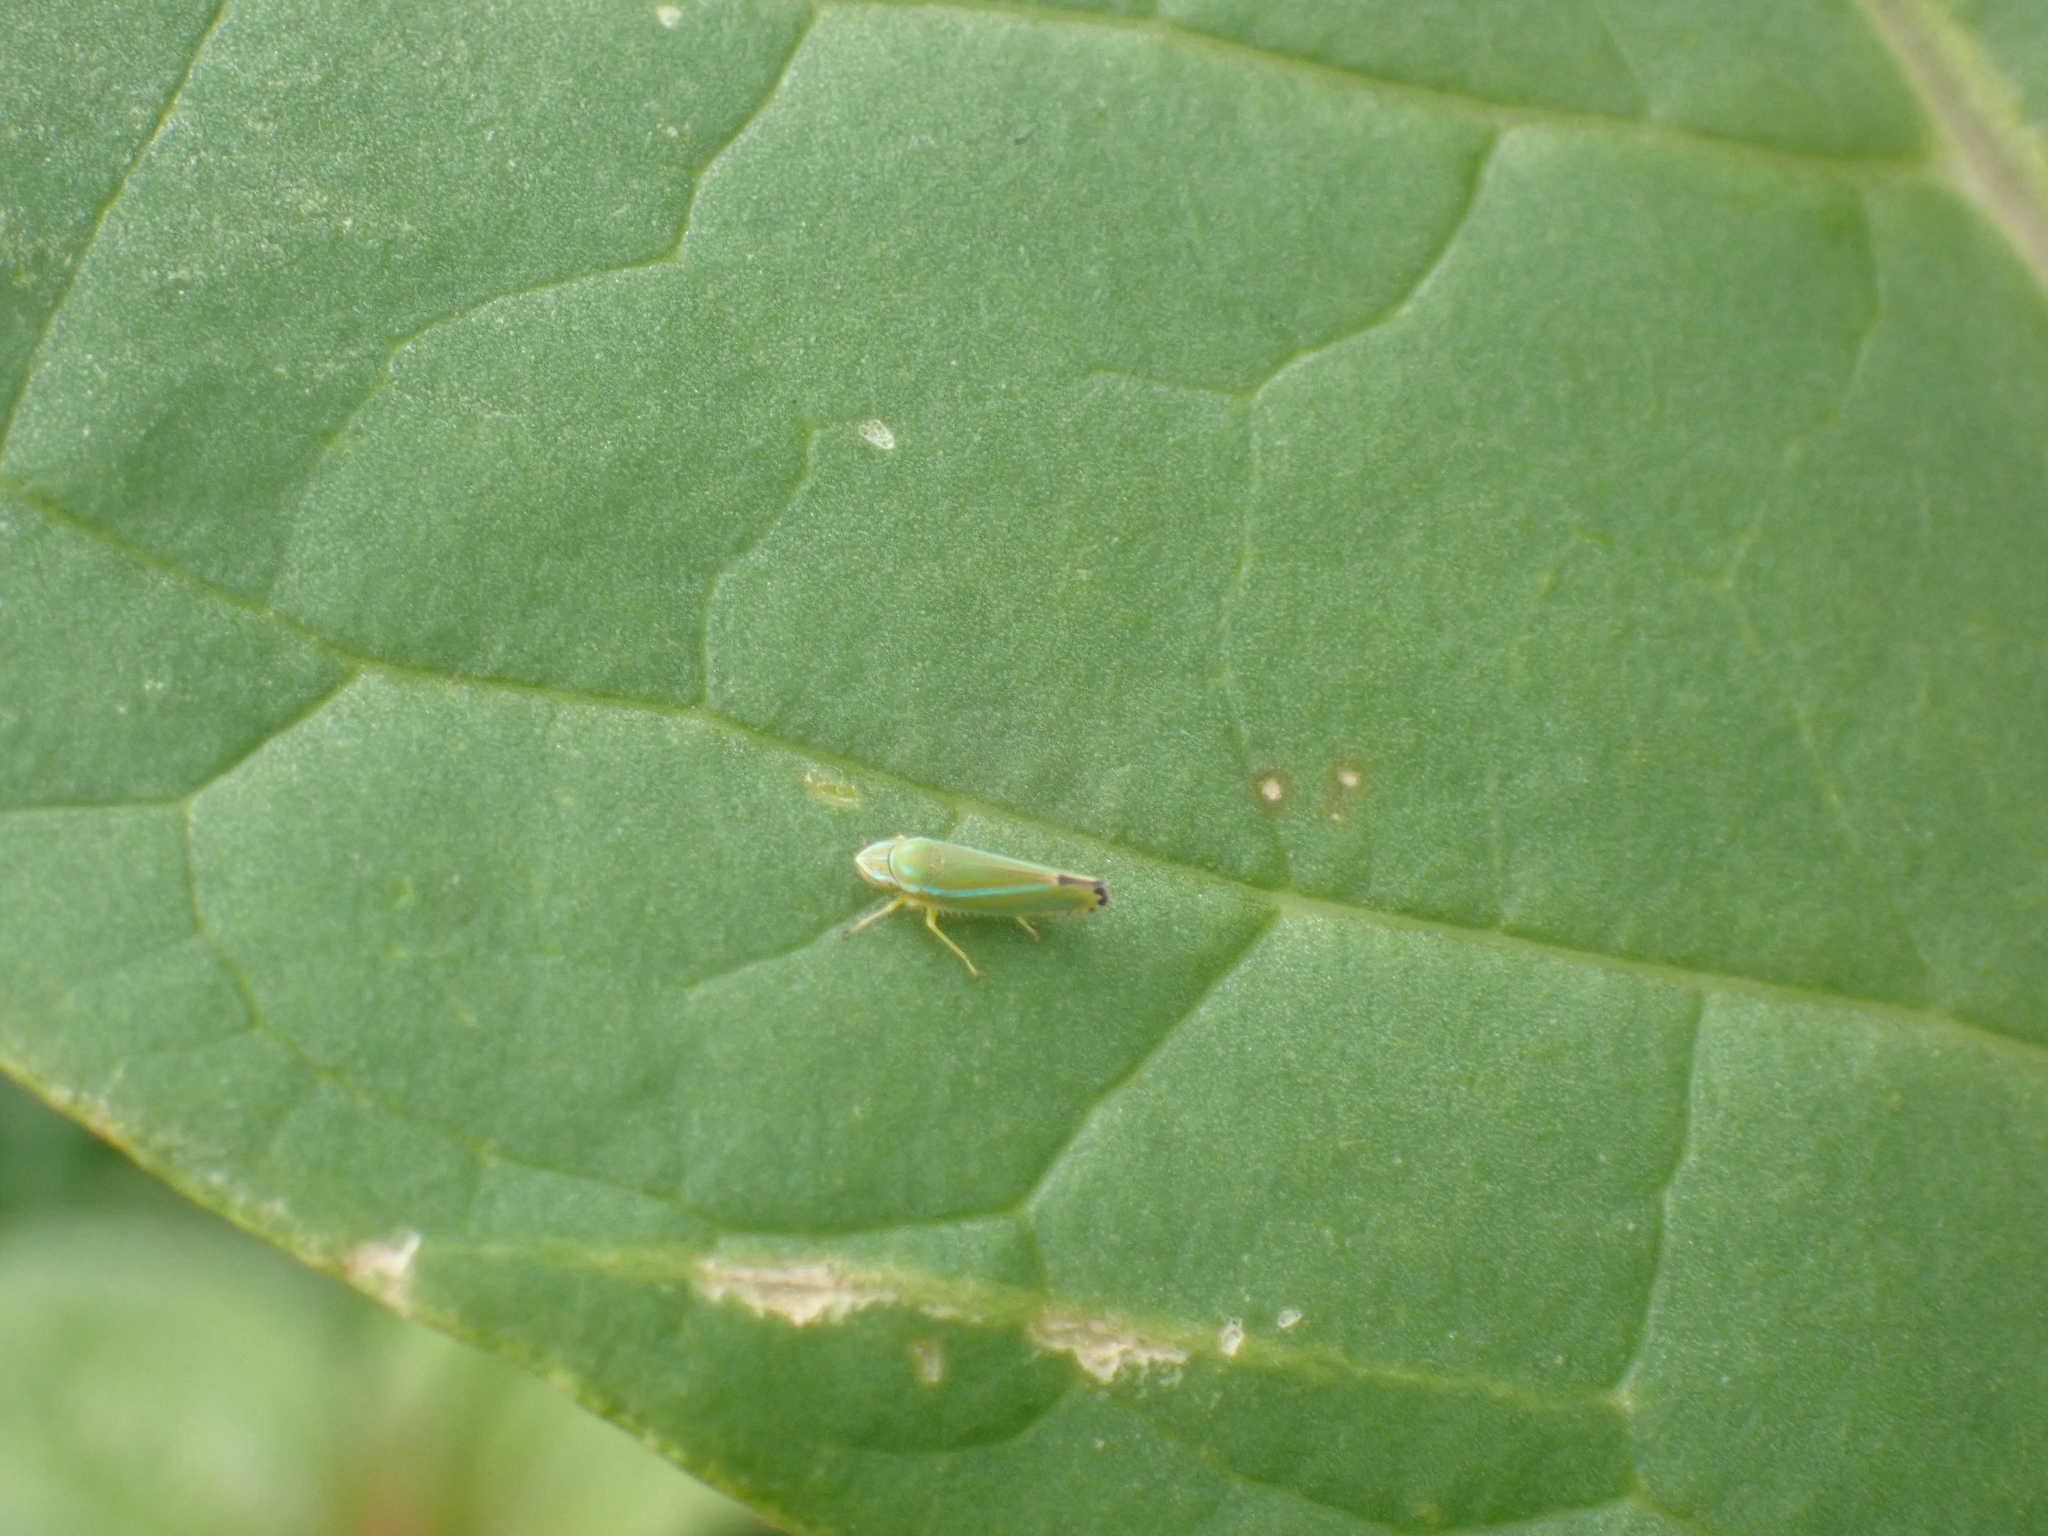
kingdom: Animalia
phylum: Arthropoda
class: Insecta
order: Hemiptera
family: Cicadellidae
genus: Graphocephala
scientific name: Graphocephala versuta
